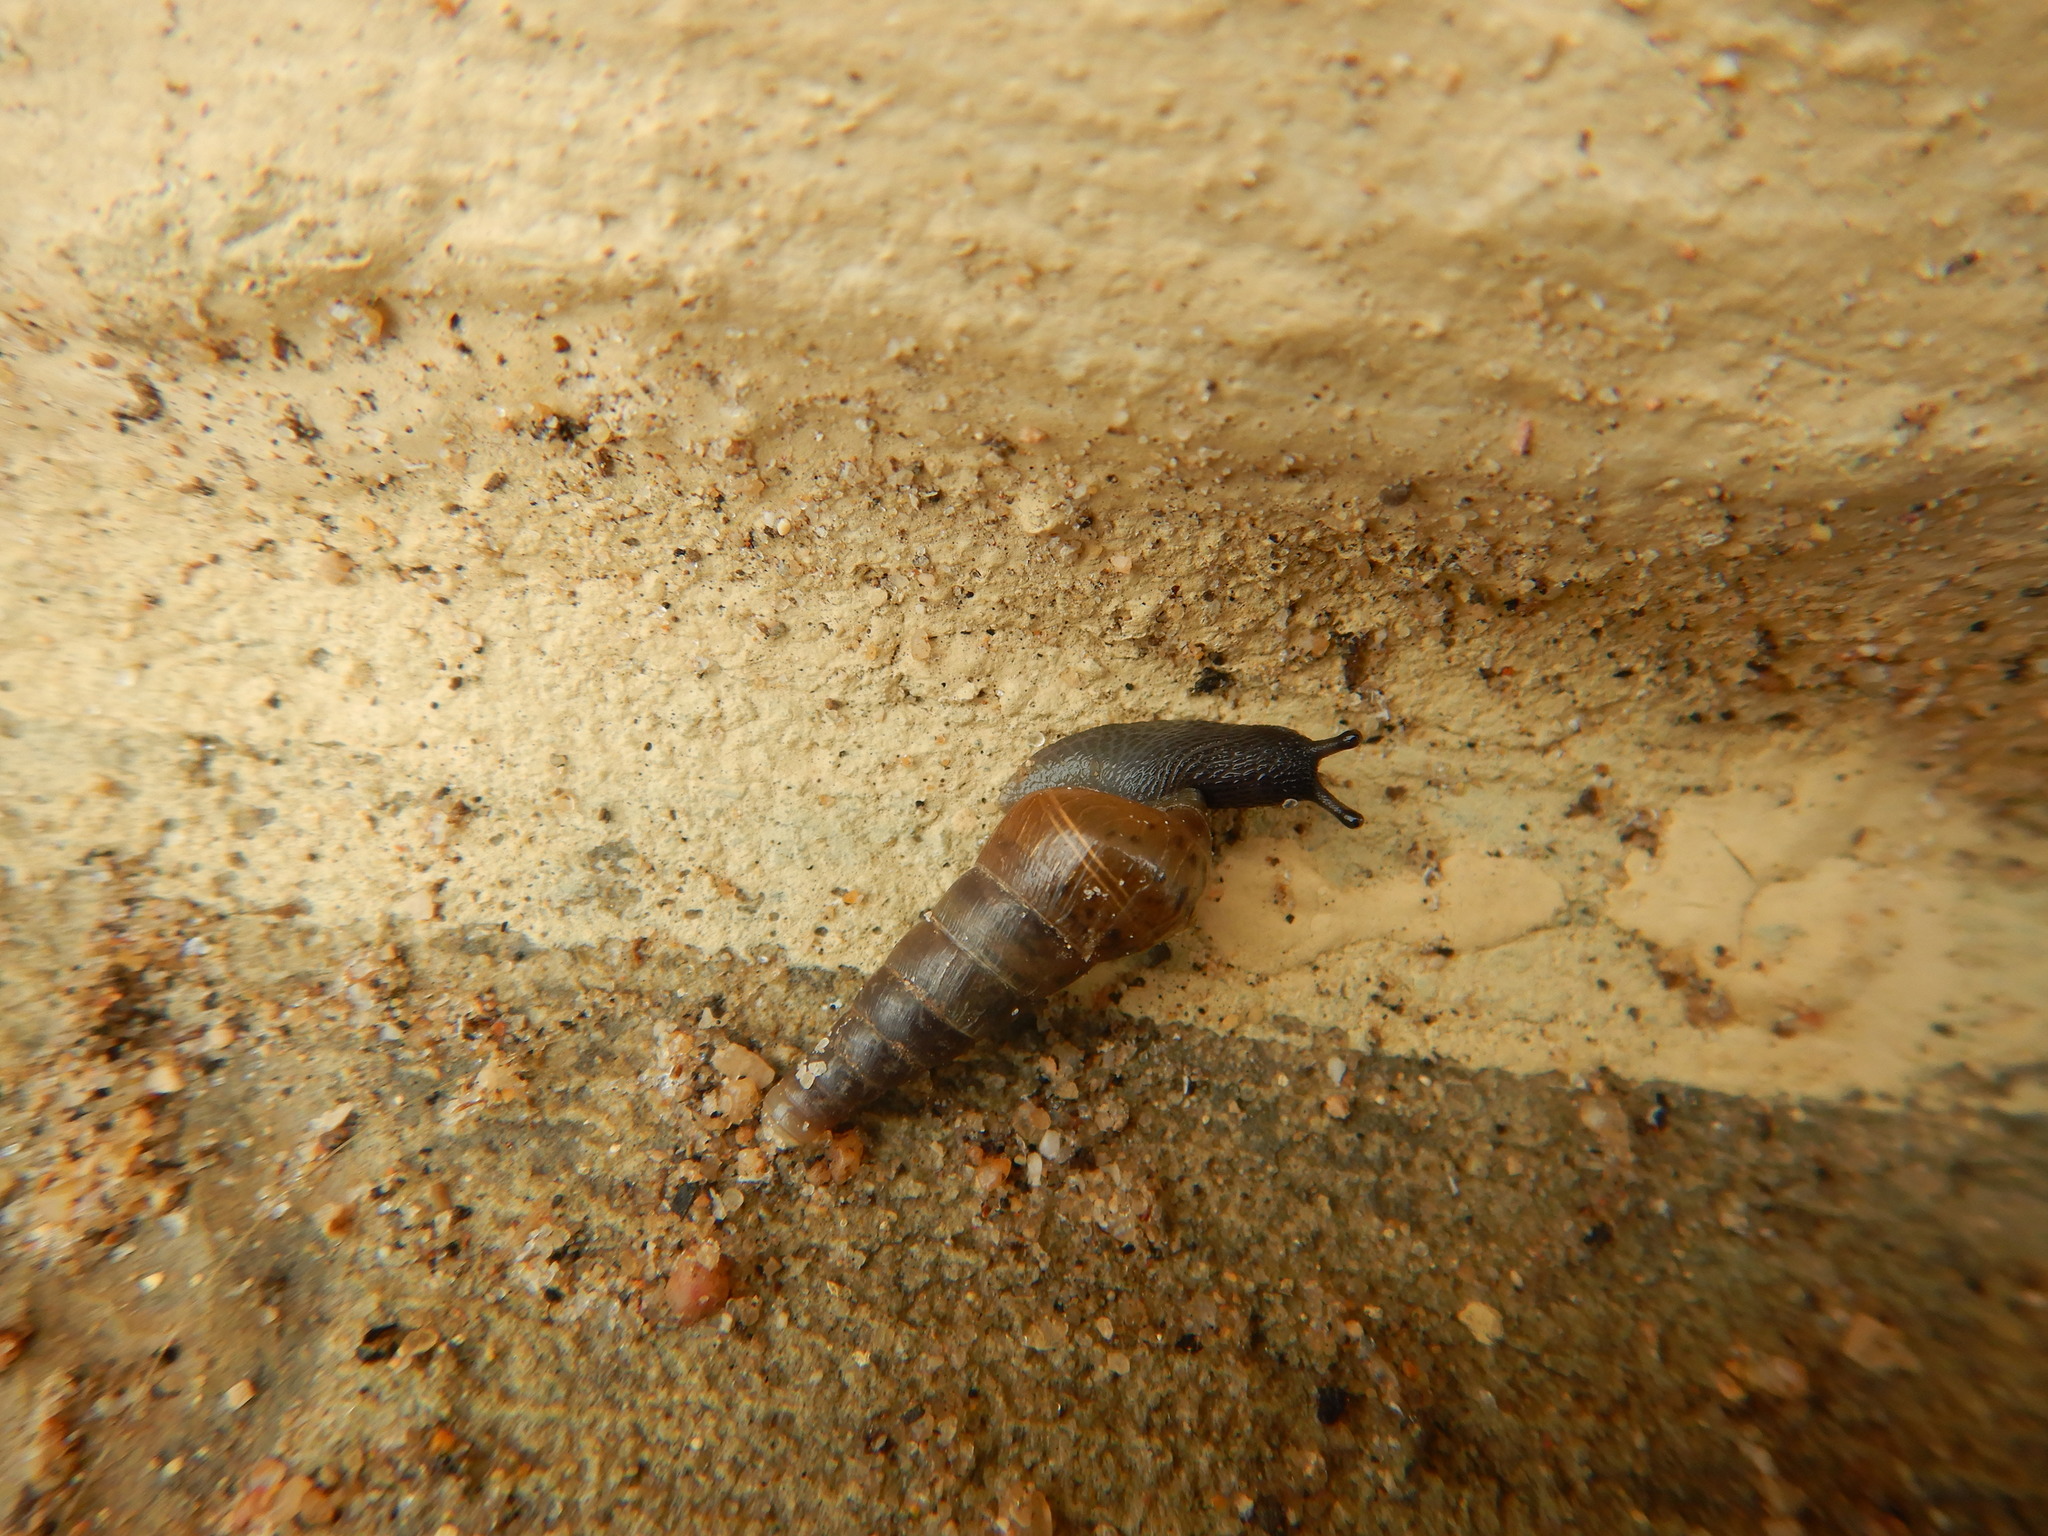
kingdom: Animalia
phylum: Mollusca
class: Gastropoda
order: Stylommatophora
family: Achatinidae
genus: Rumina
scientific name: Rumina decollata
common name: Decollate snail
